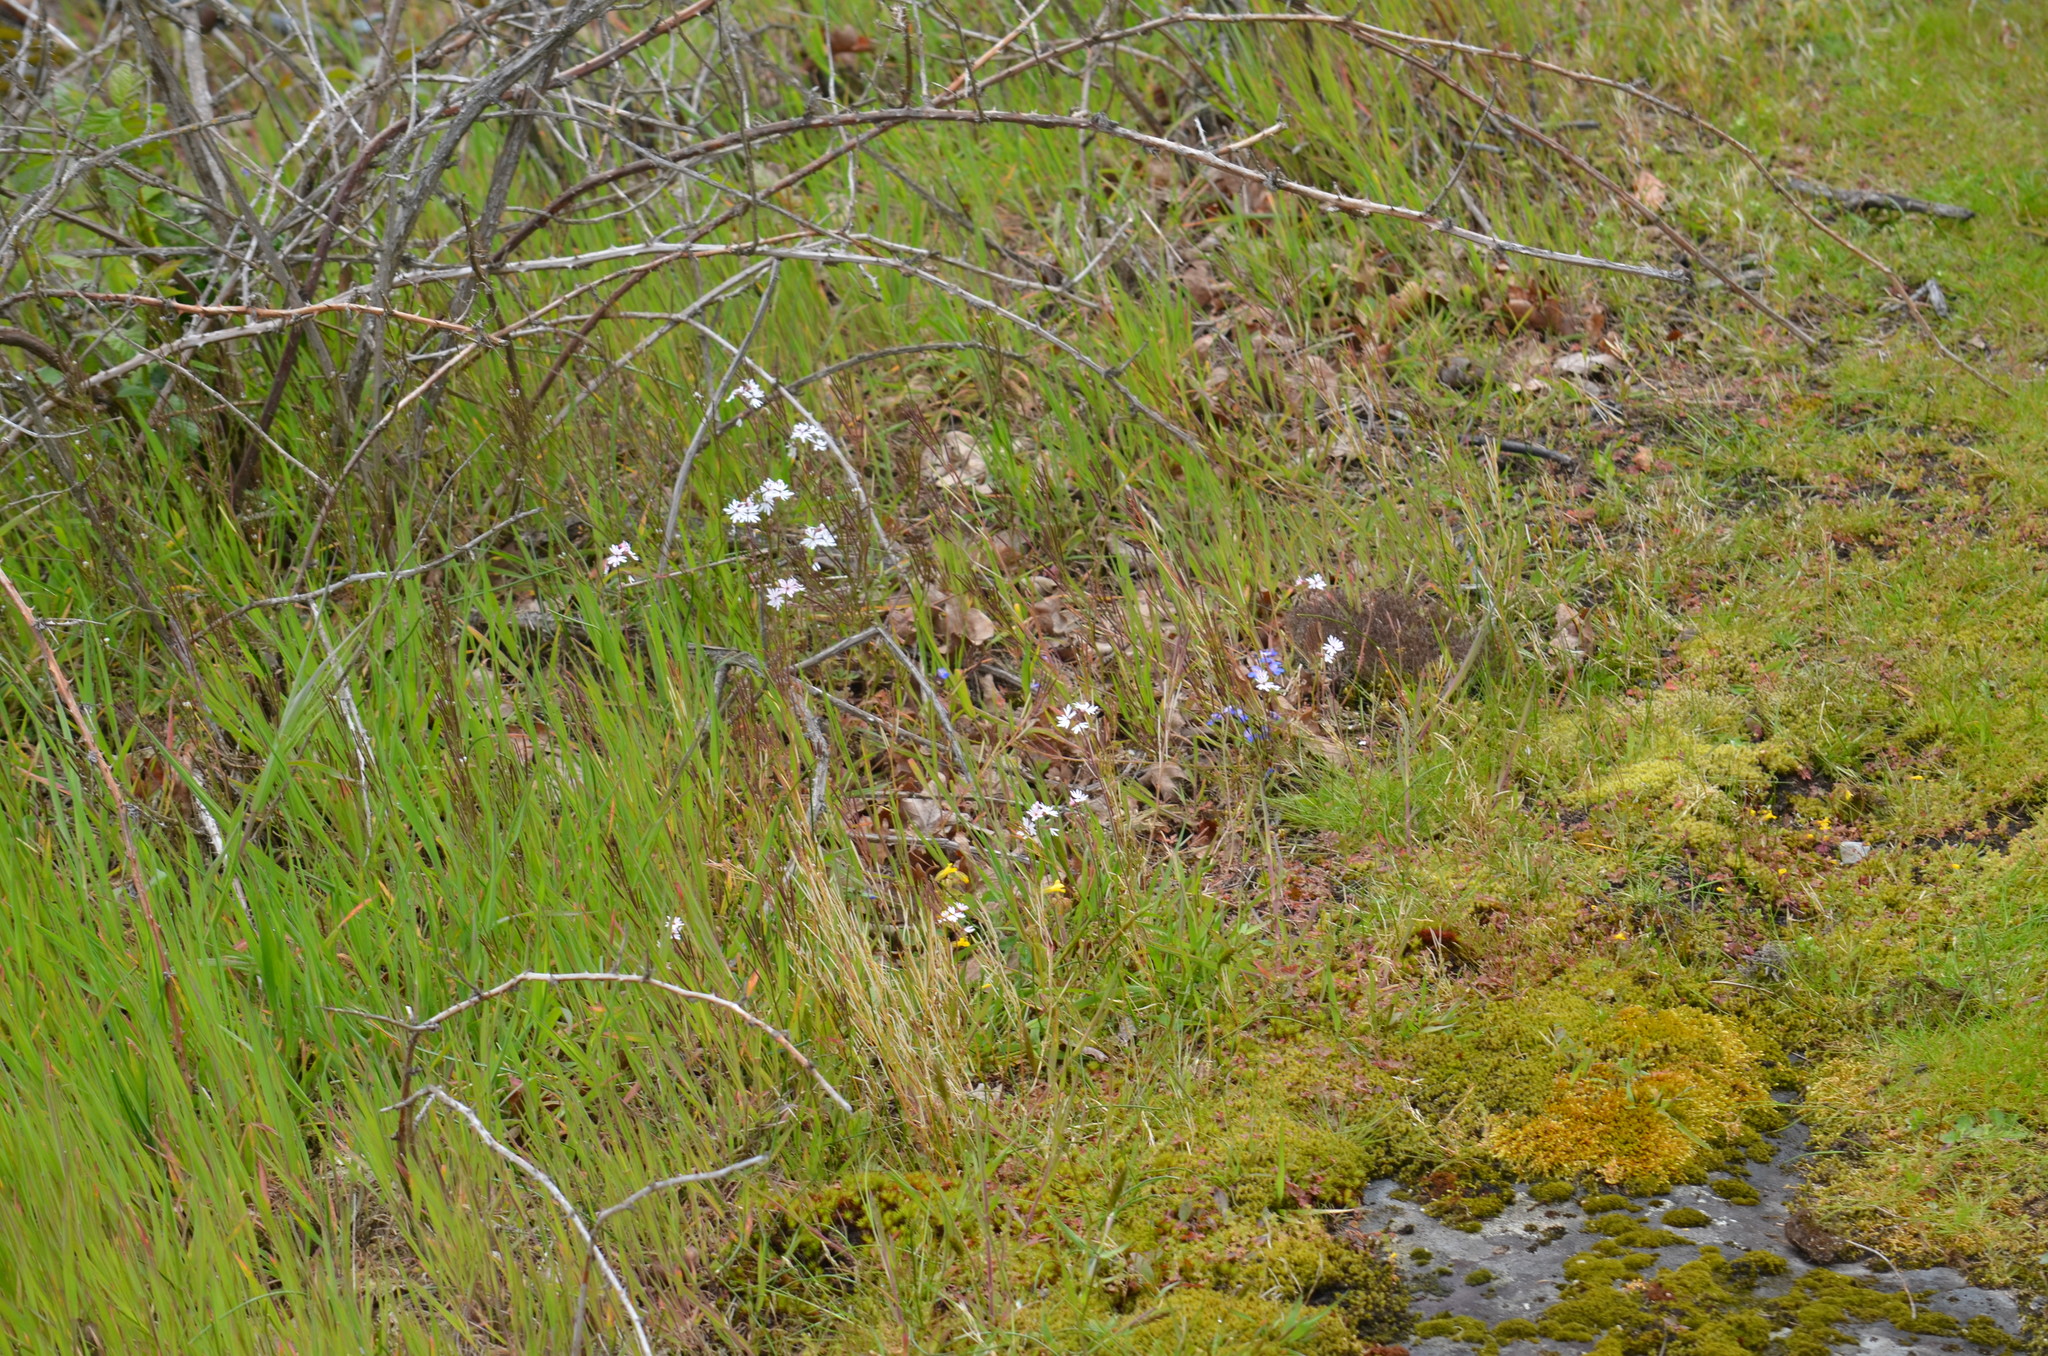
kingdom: Plantae
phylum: Tracheophyta
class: Magnoliopsida
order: Saxifragales
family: Saxifragaceae
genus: Lithophragma
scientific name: Lithophragma parviflorum
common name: Small-flowered fringe-cup
